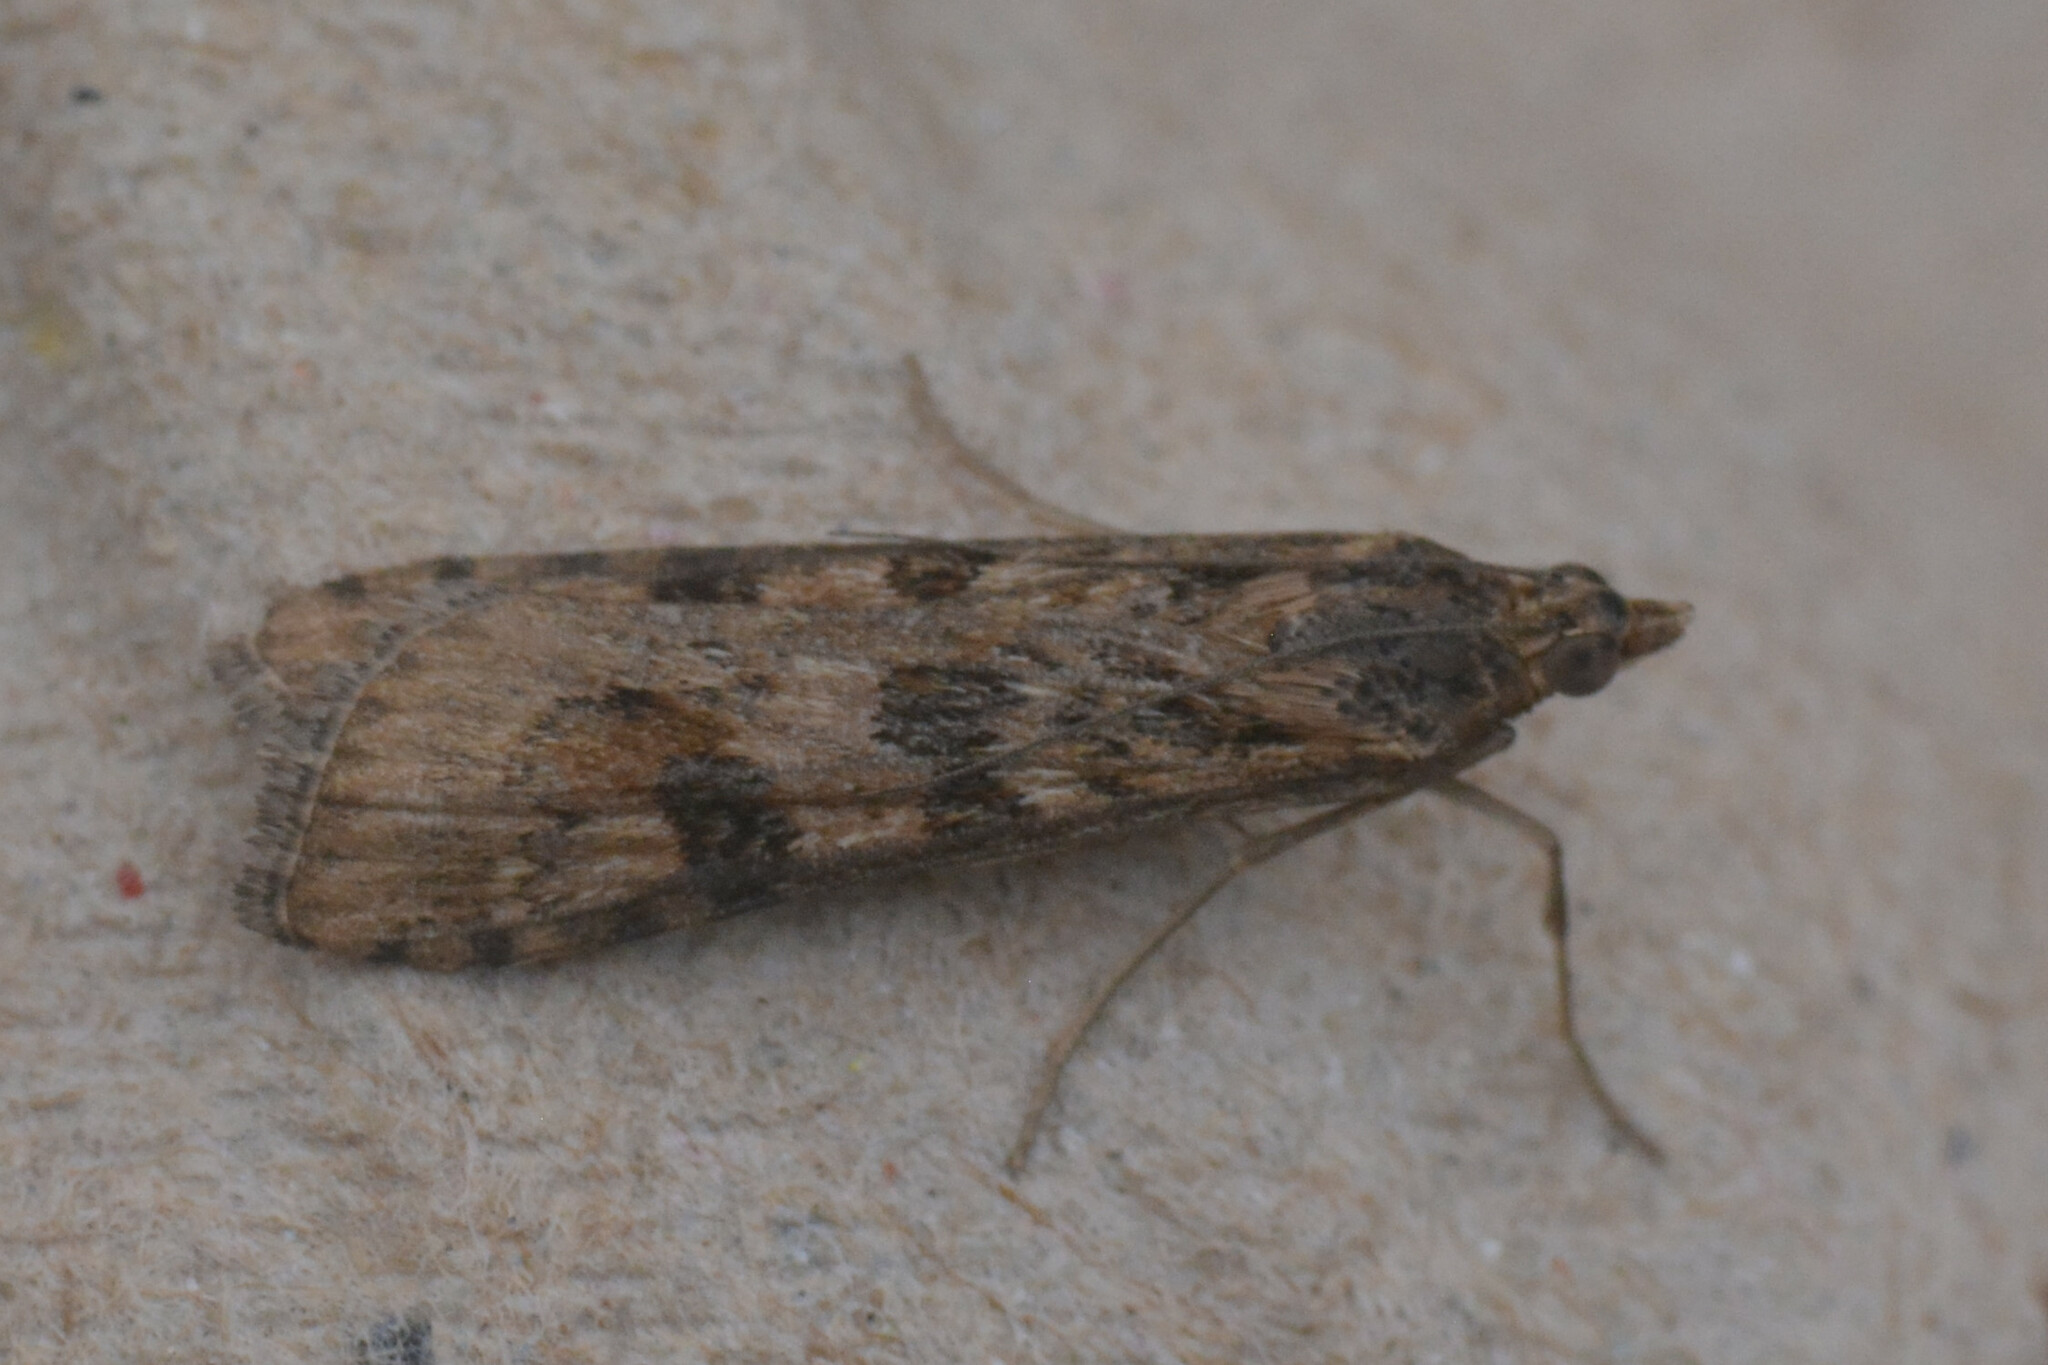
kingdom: Animalia
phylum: Arthropoda
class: Insecta
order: Lepidoptera
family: Crambidae
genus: Nomophila
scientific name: Nomophila noctuella
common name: Rush veneer
